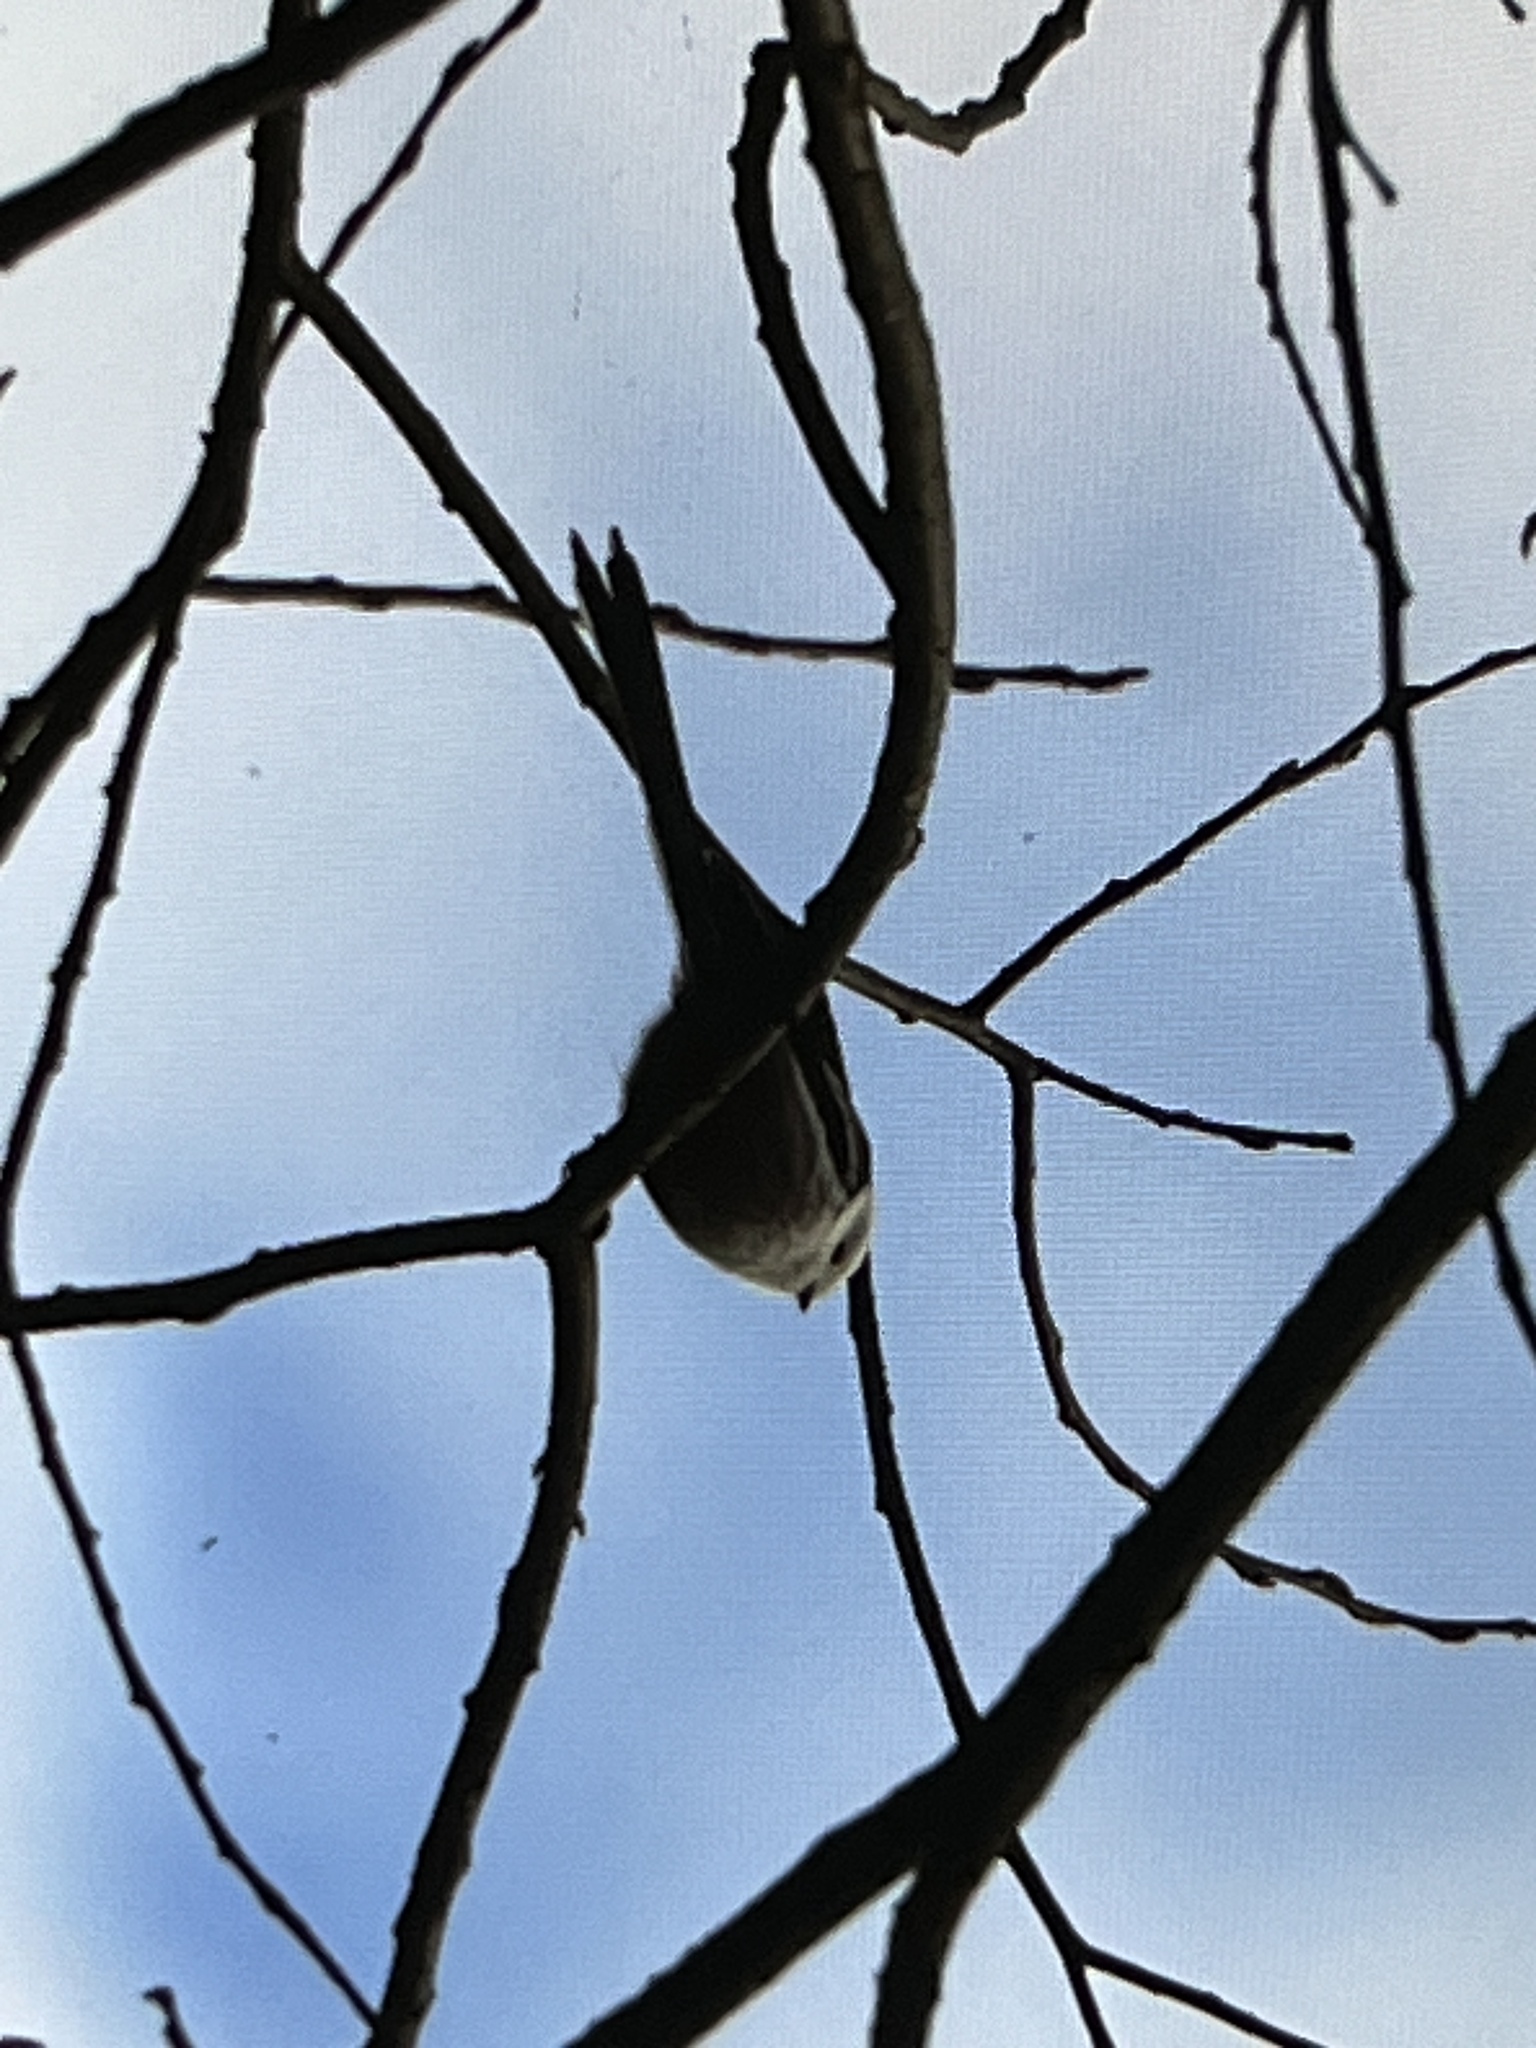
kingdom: Animalia
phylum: Chordata
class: Aves
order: Passeriformes
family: Aegithalidae
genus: Aegithalos
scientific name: Aegithalos caudatus
